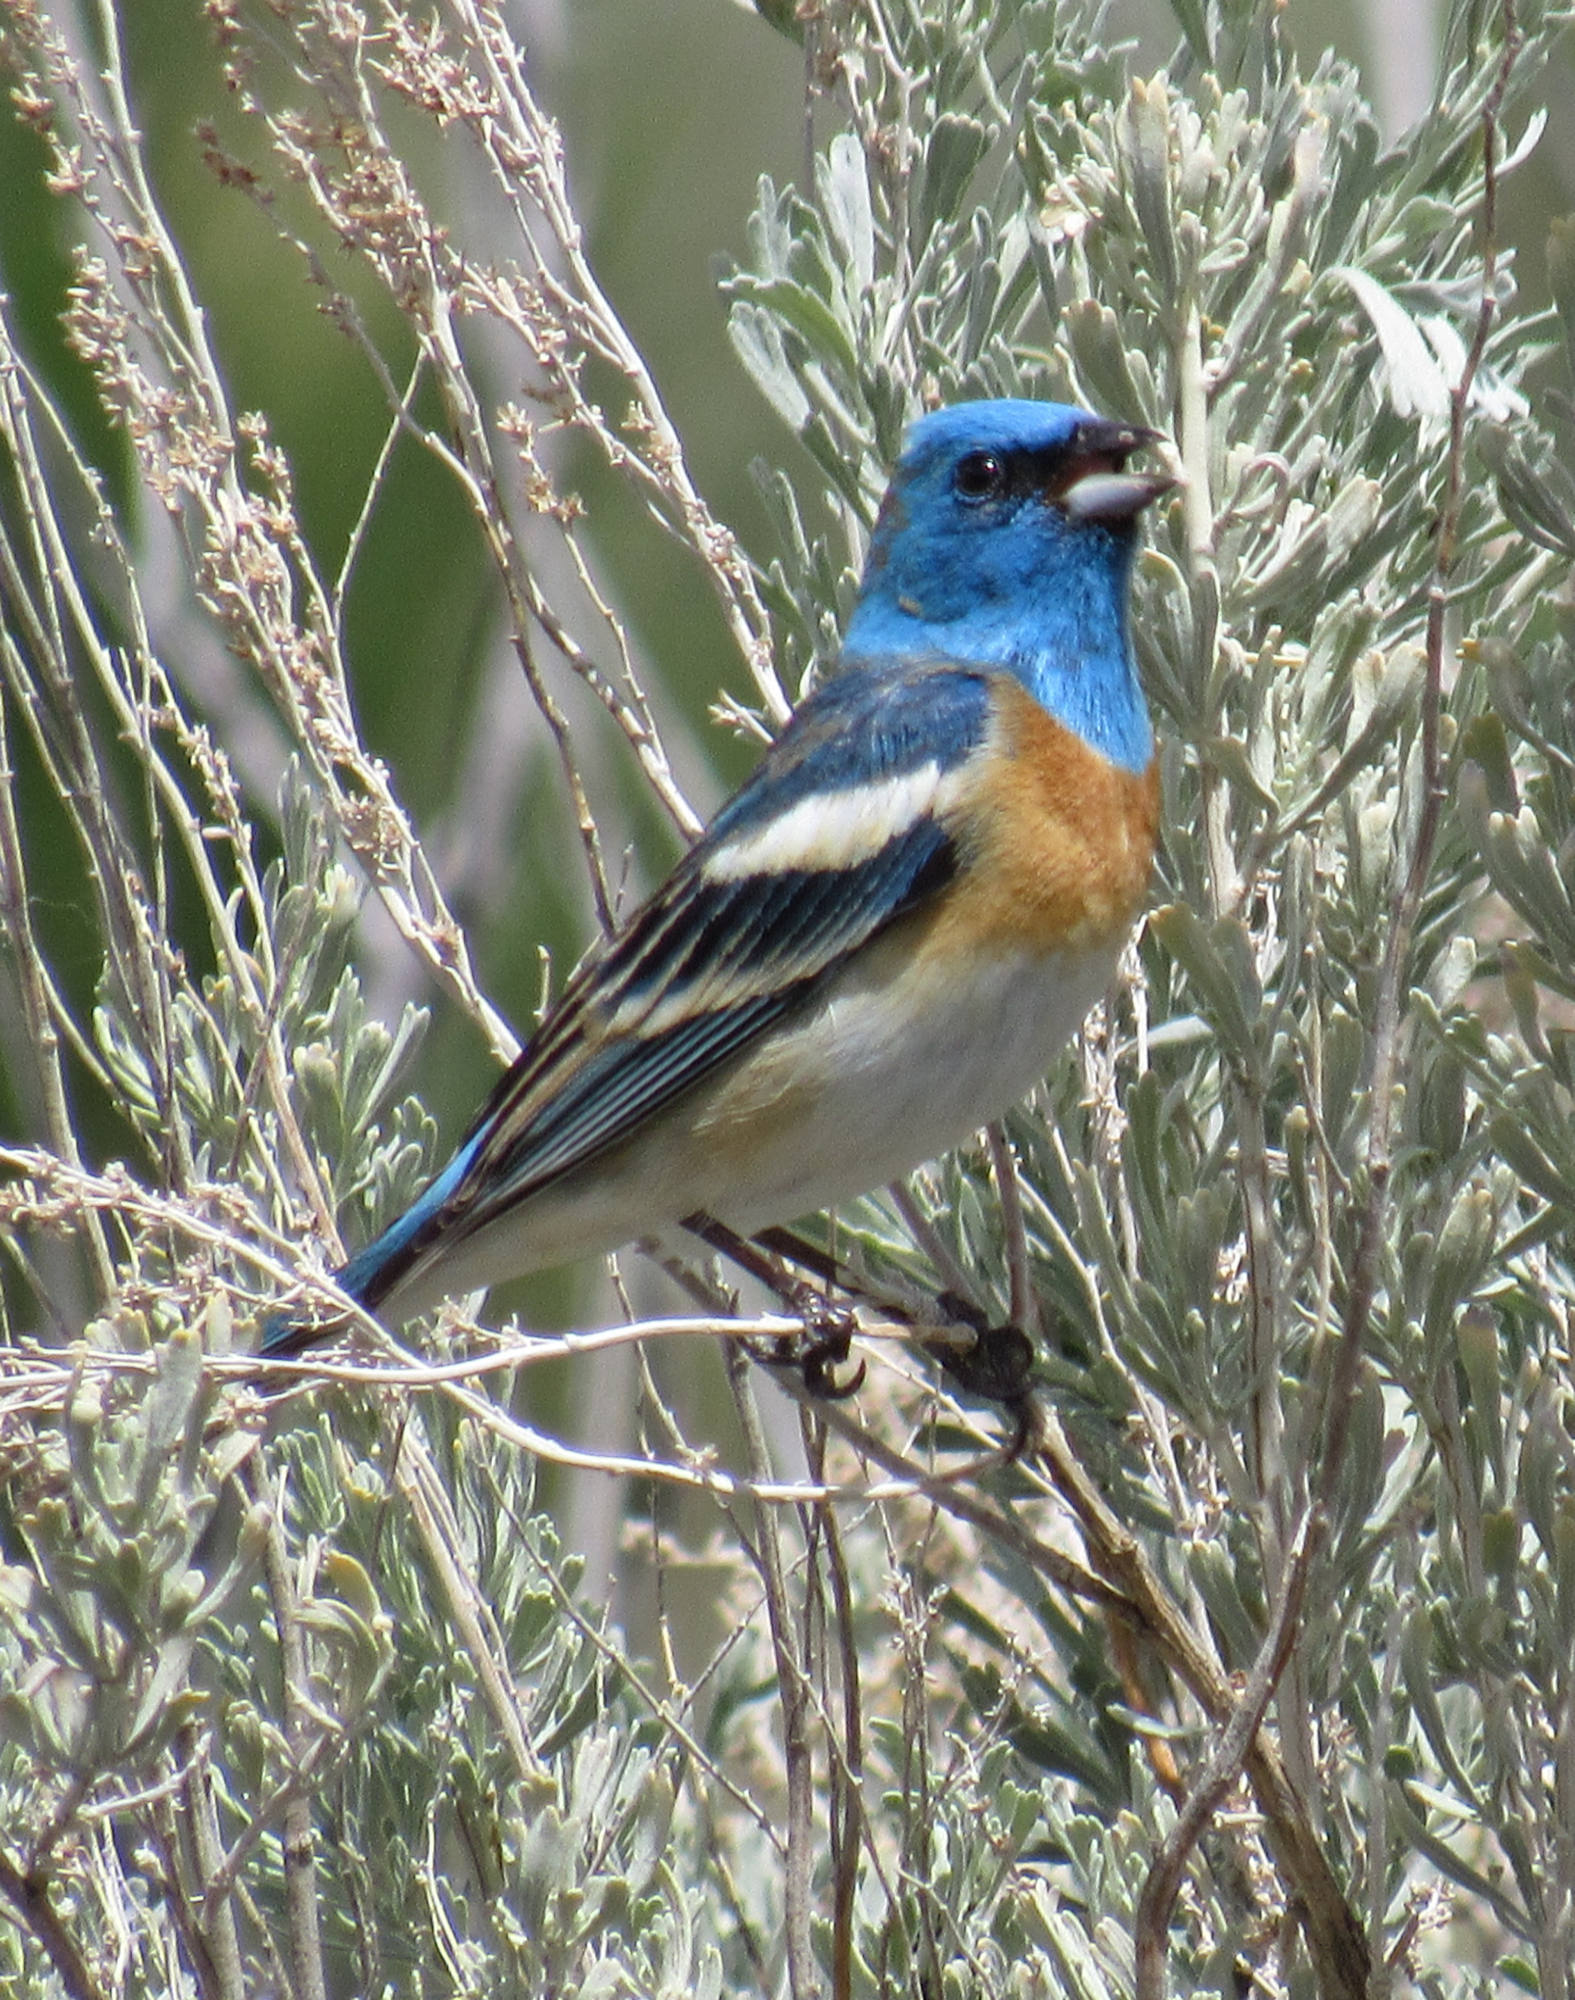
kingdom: Animalia
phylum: Chordata
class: Aves
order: Passeriformes
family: Cardinalidae
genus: Passerina
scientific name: Passerina amoena
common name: Lazuli bunting
